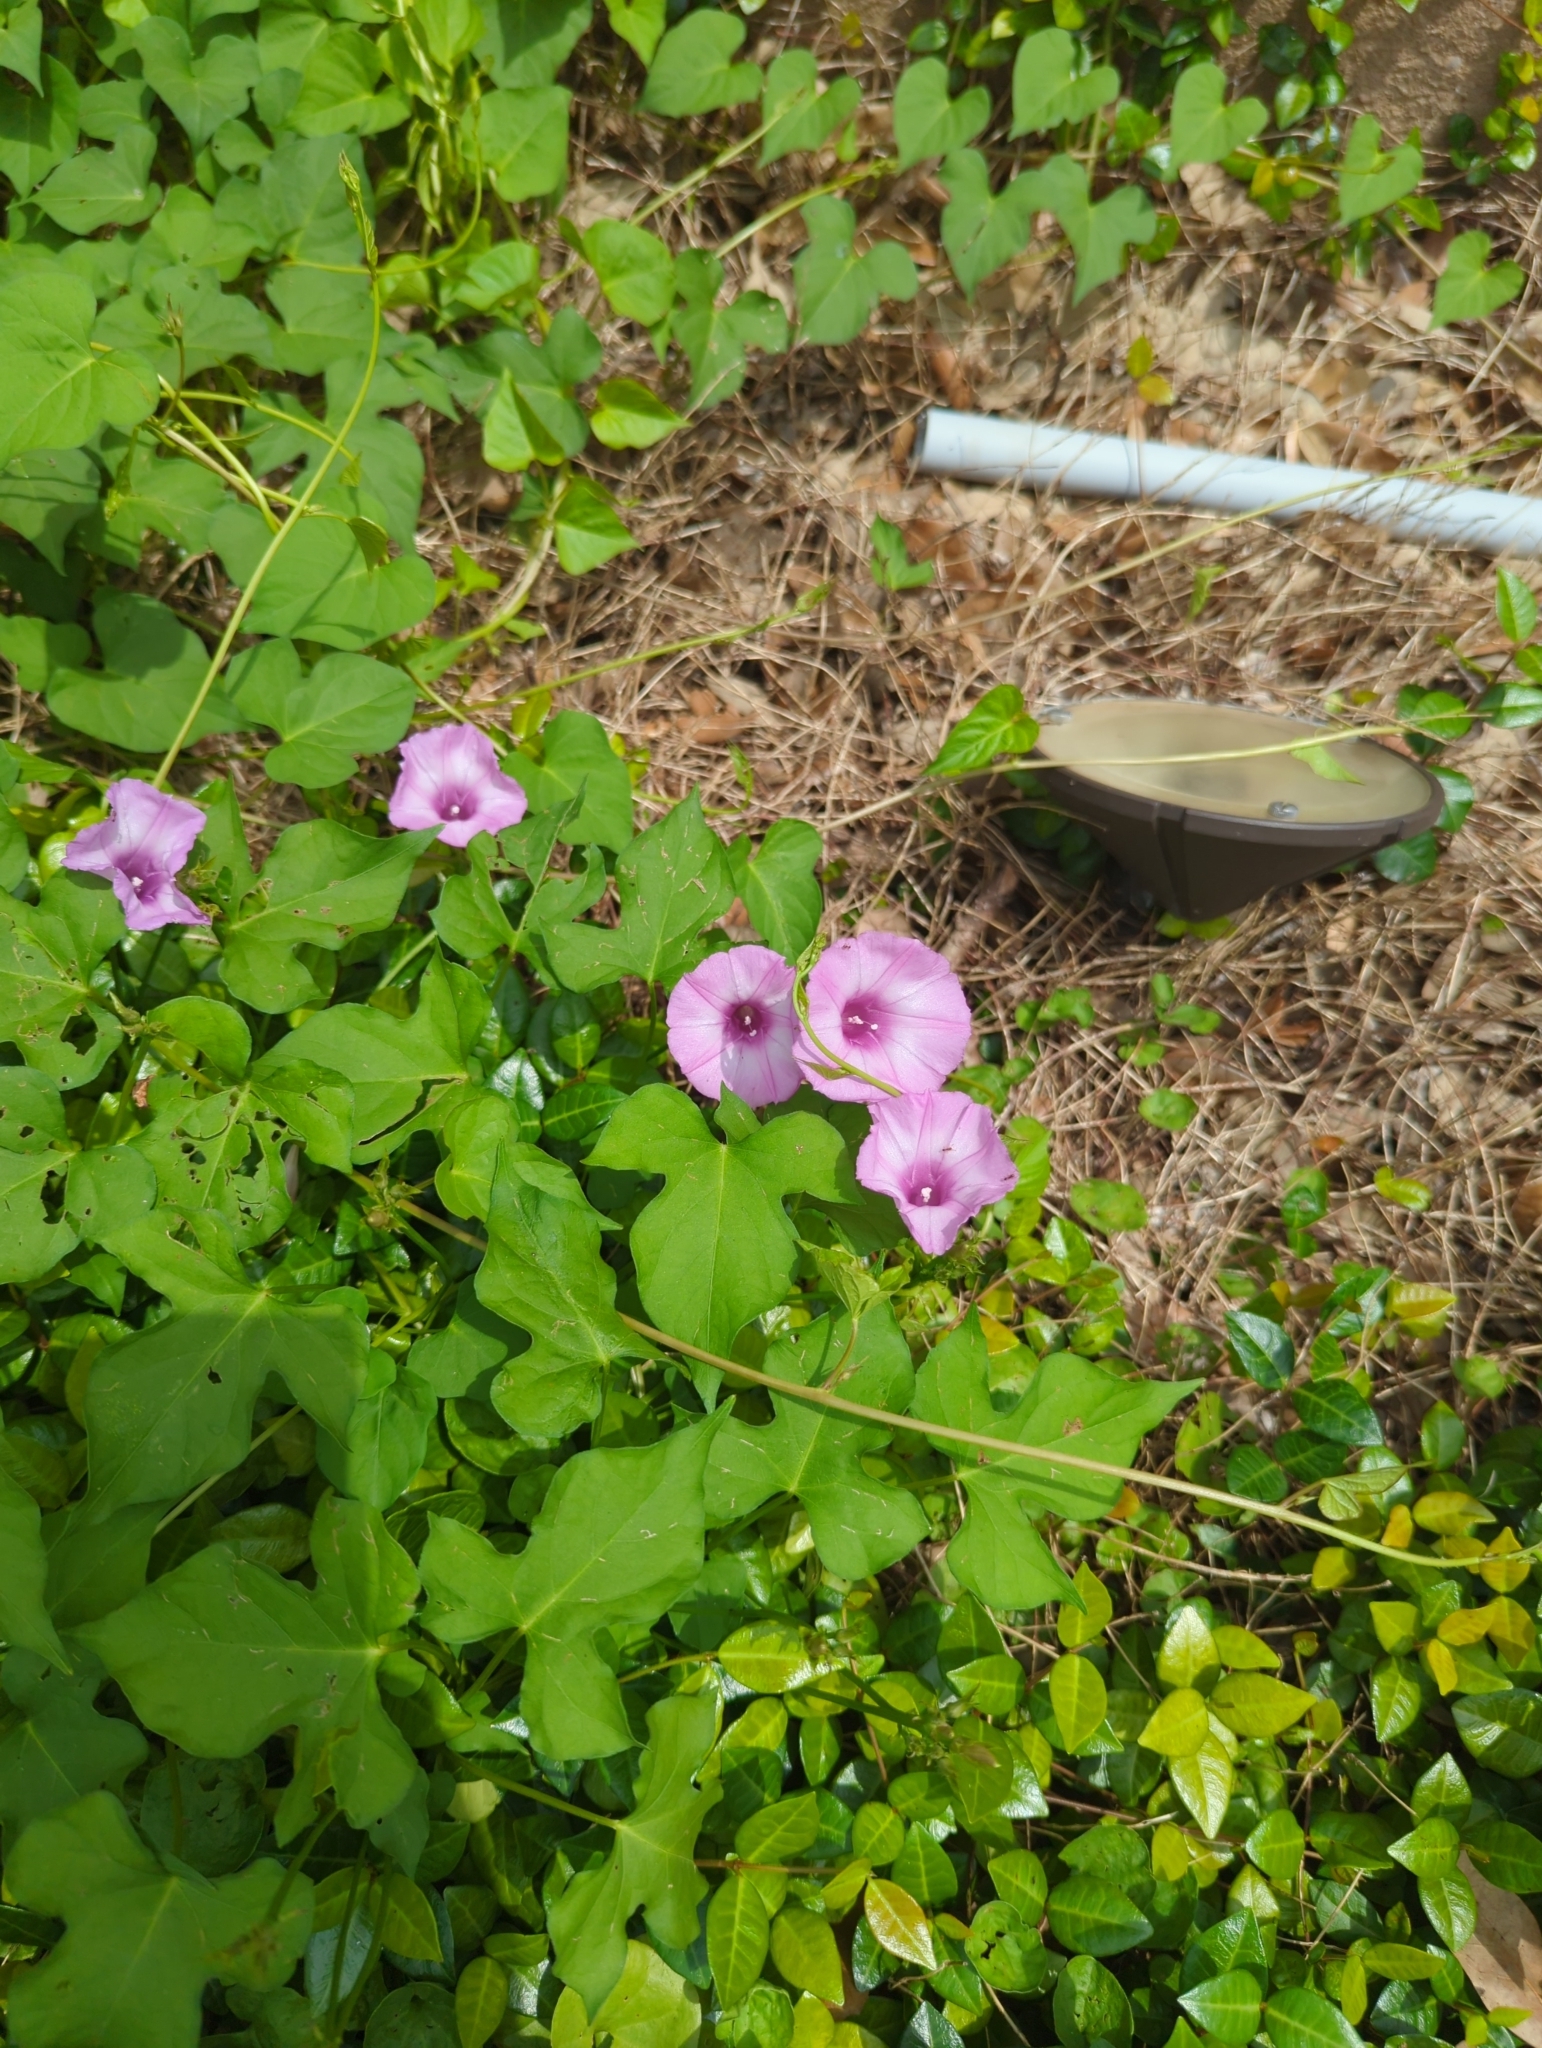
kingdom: Plantae
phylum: Tracheophyta
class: Magnoliopsida
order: Solanales
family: Convolvulaceae
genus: Ipomoea
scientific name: Ipomoea cordatotriloba
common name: Cotton morning glory
